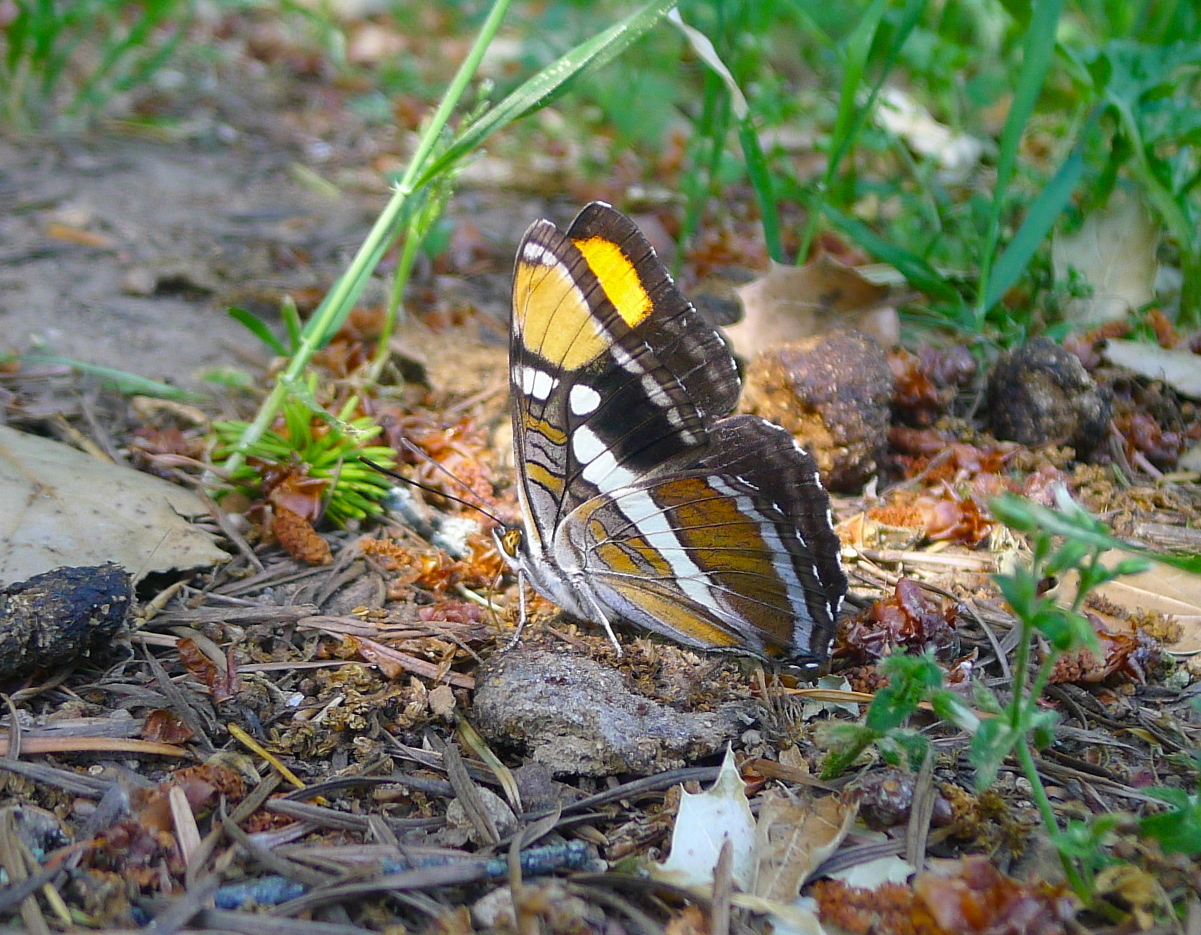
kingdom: Animalia
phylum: Arthropoda
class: Insecta
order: Lepidoptera
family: Nymphalidae
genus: Limenitis
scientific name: Limenitis bredowii
